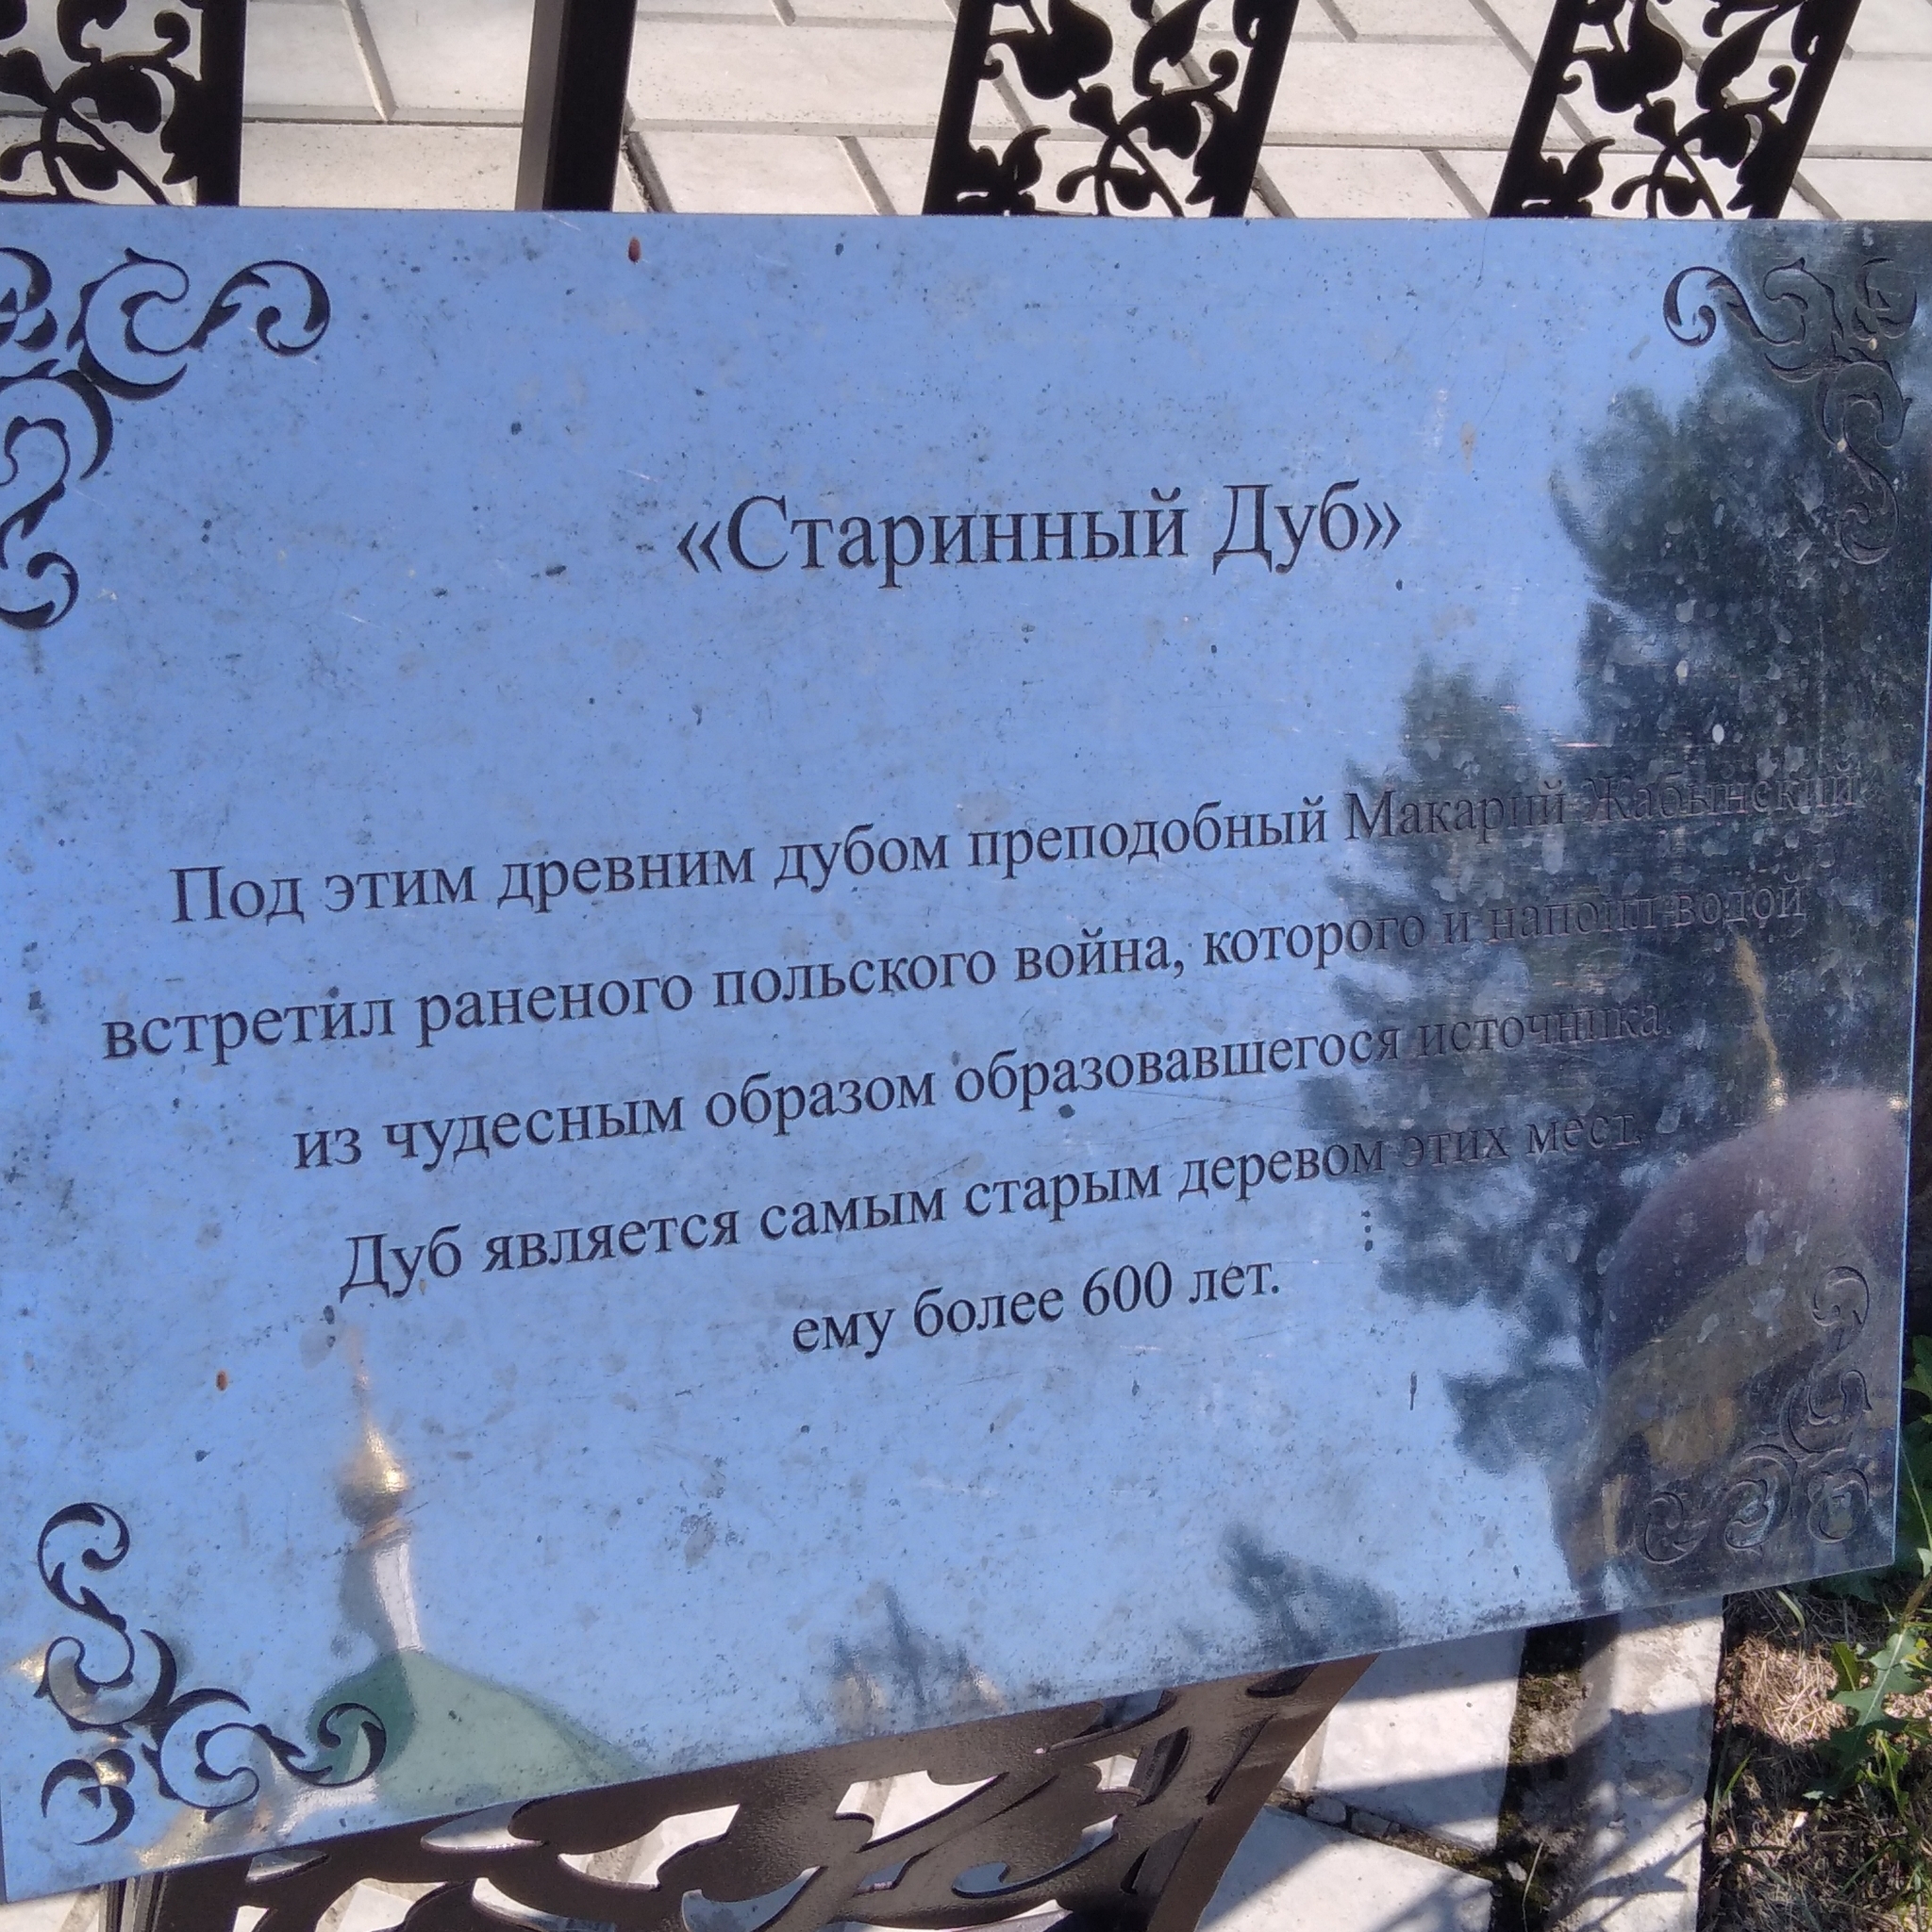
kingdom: Plantae
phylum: Tracheophyta
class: Magnoliopsida
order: Fagales
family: Fagaceae
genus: Quercus
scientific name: Quercus robur
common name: Pedunculate oak
